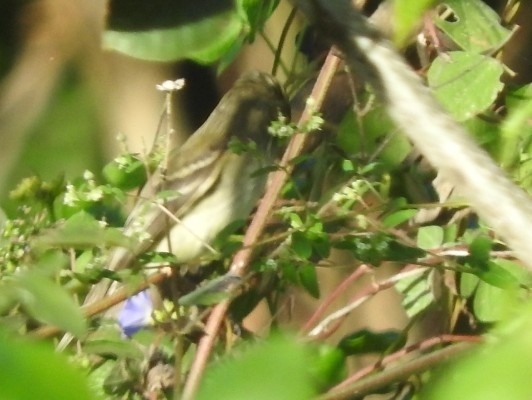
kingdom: Animalia
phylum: Chordata
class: Aves
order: Passeriformes
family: Tyrannidae
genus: Empidonax
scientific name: Empidonax minimus
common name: Least flycatcher
